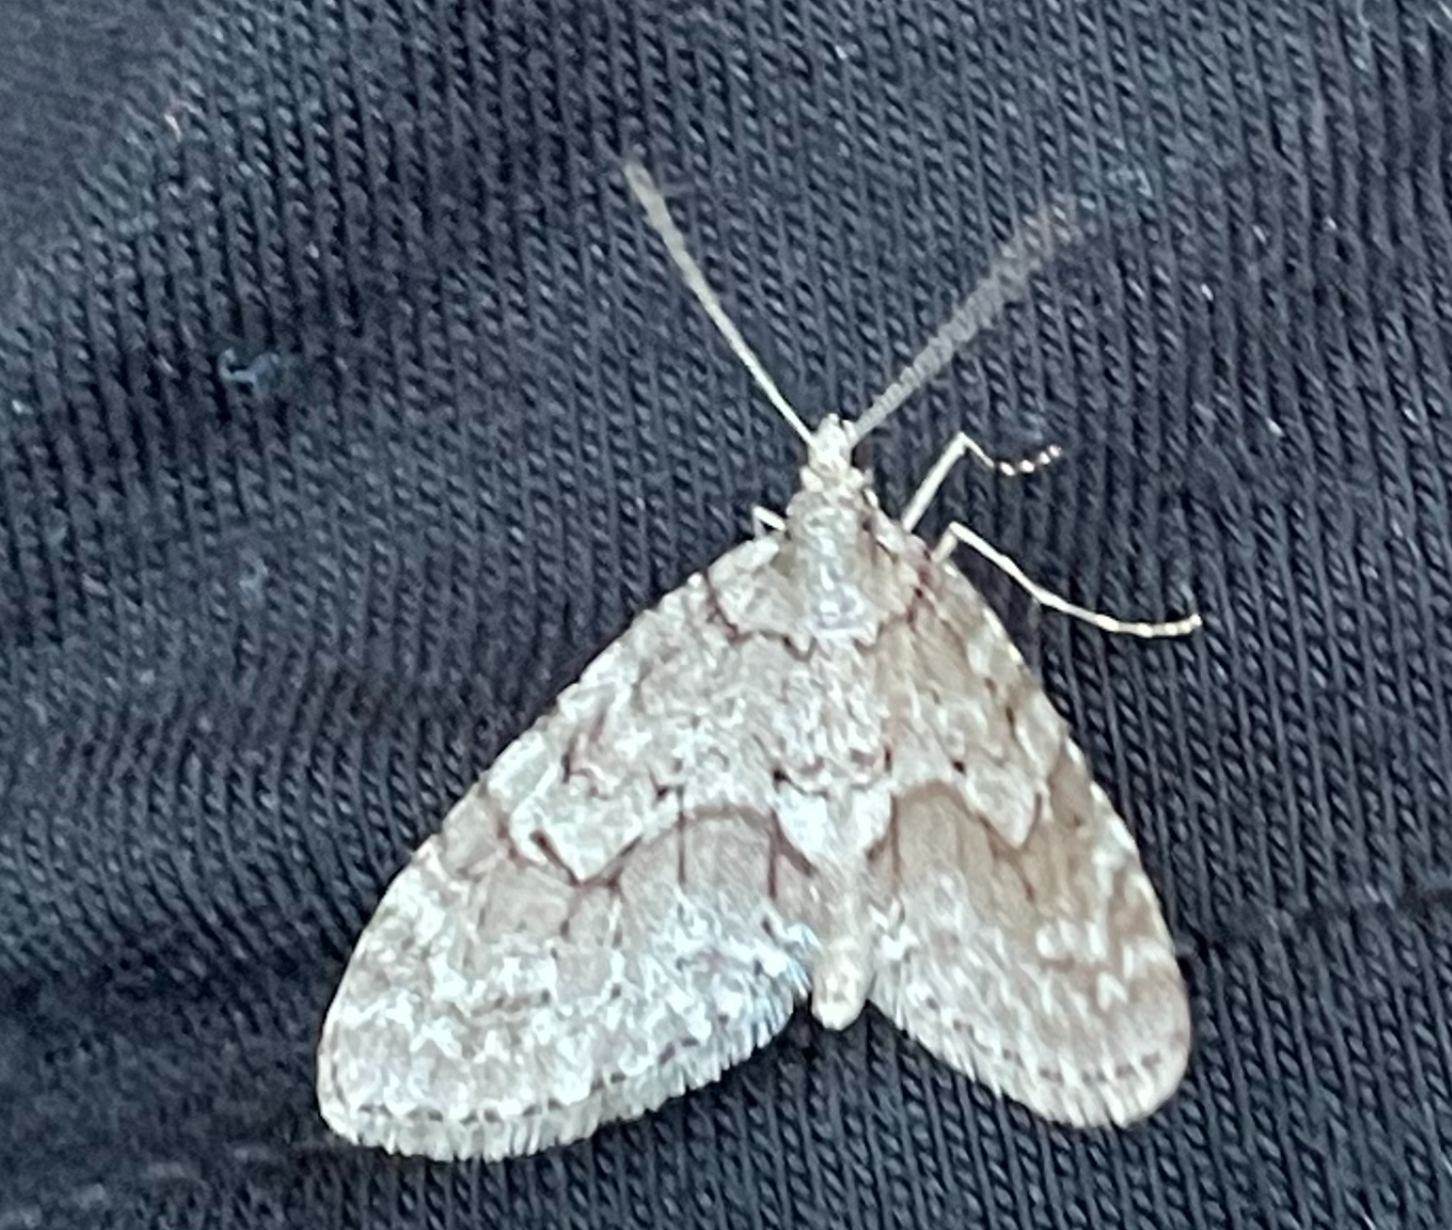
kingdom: Animalia
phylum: Arthropoda
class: Insecta
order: Lepidoptera
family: Geometridae
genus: Cladara
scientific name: Cladara limitaria
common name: Mottled gray carpet
